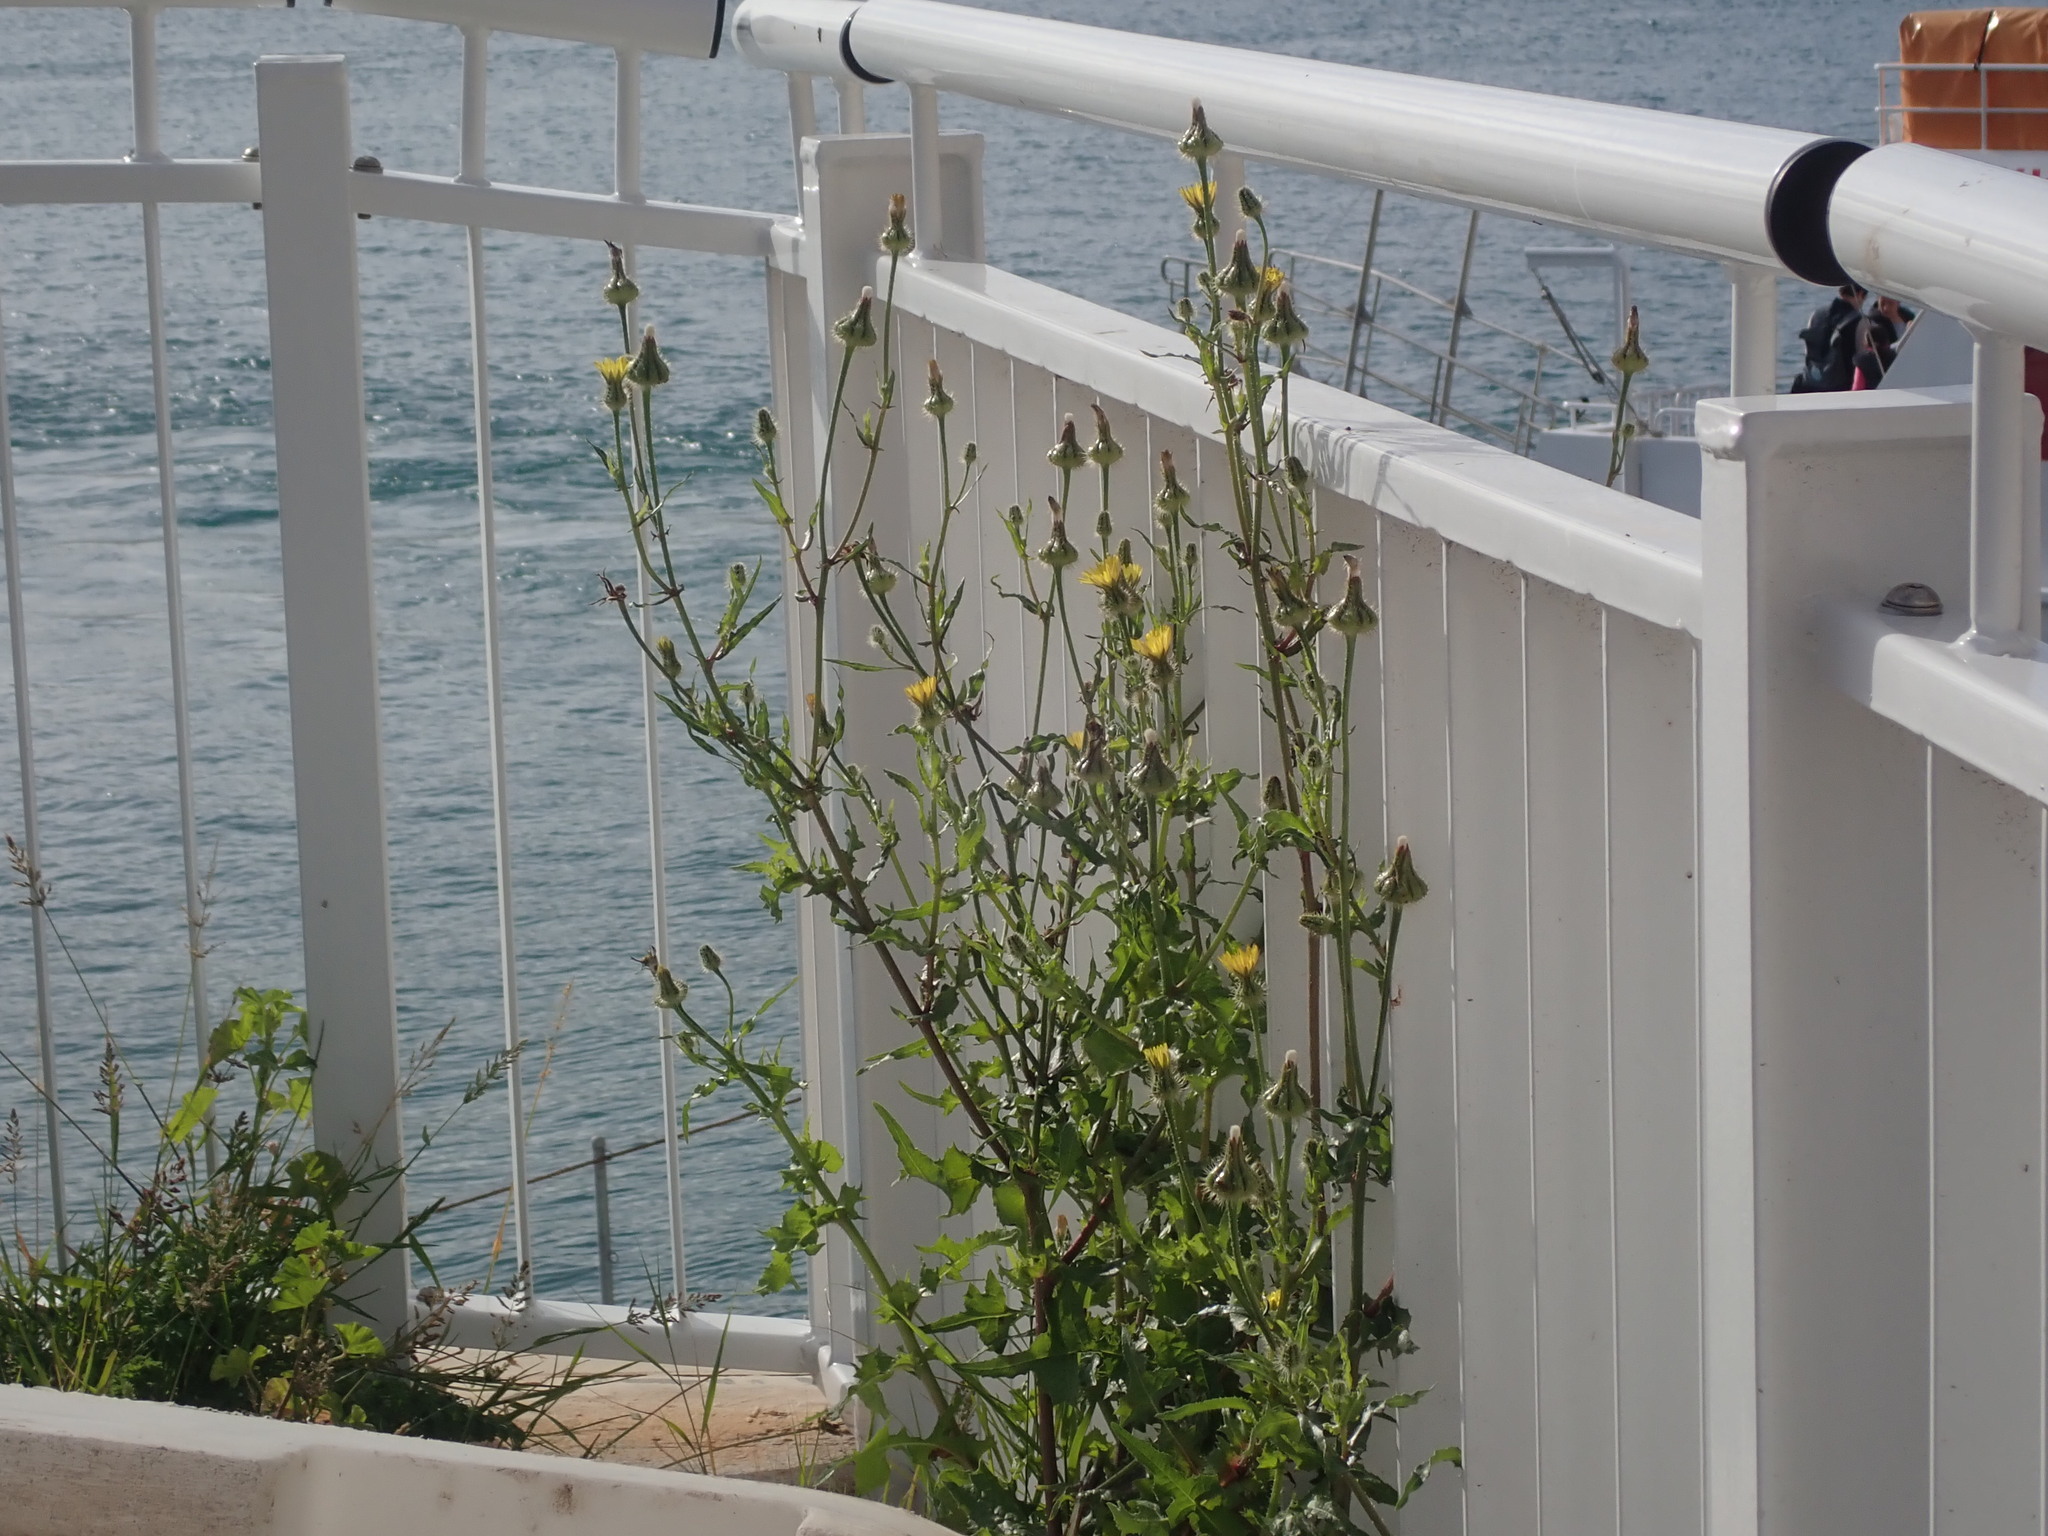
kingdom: Plantae
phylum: Tracheophyta
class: Magnoliopsida
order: Asterales
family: Asteraceae
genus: Urospermum
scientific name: Urospermum picroides
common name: False hawkbit
